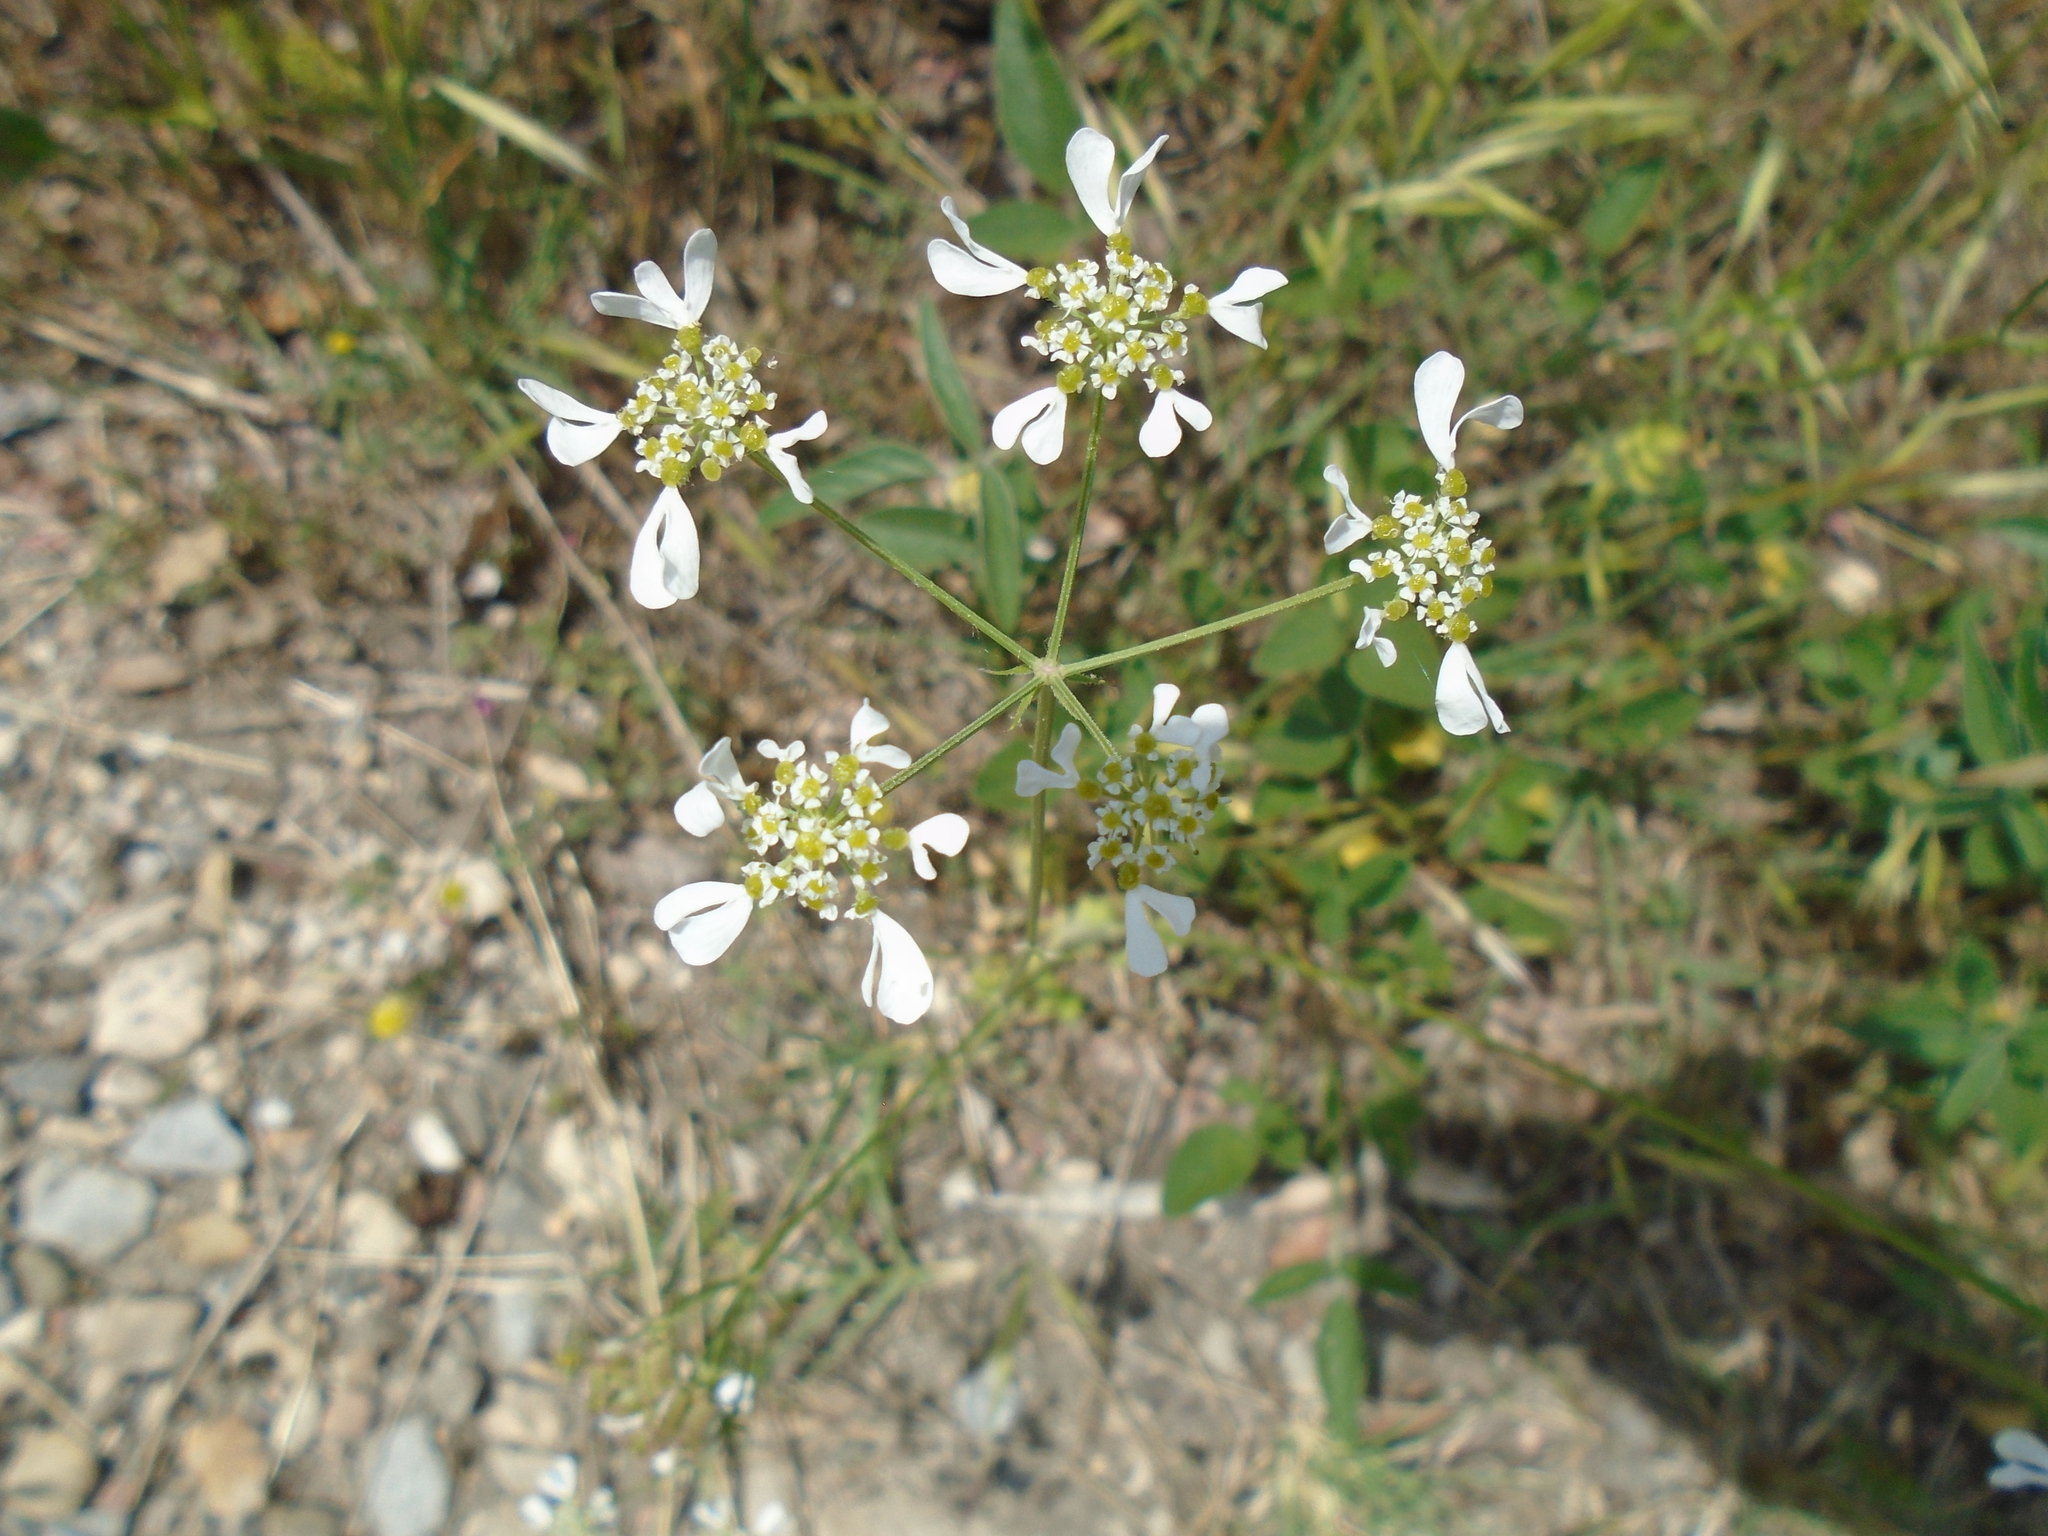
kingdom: Plantae
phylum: Tracheophyta
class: Magnoliopsida
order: Apiales
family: Apiaceae
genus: Tordylium
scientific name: Tordylium apulum
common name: Mediterranean hartwort
